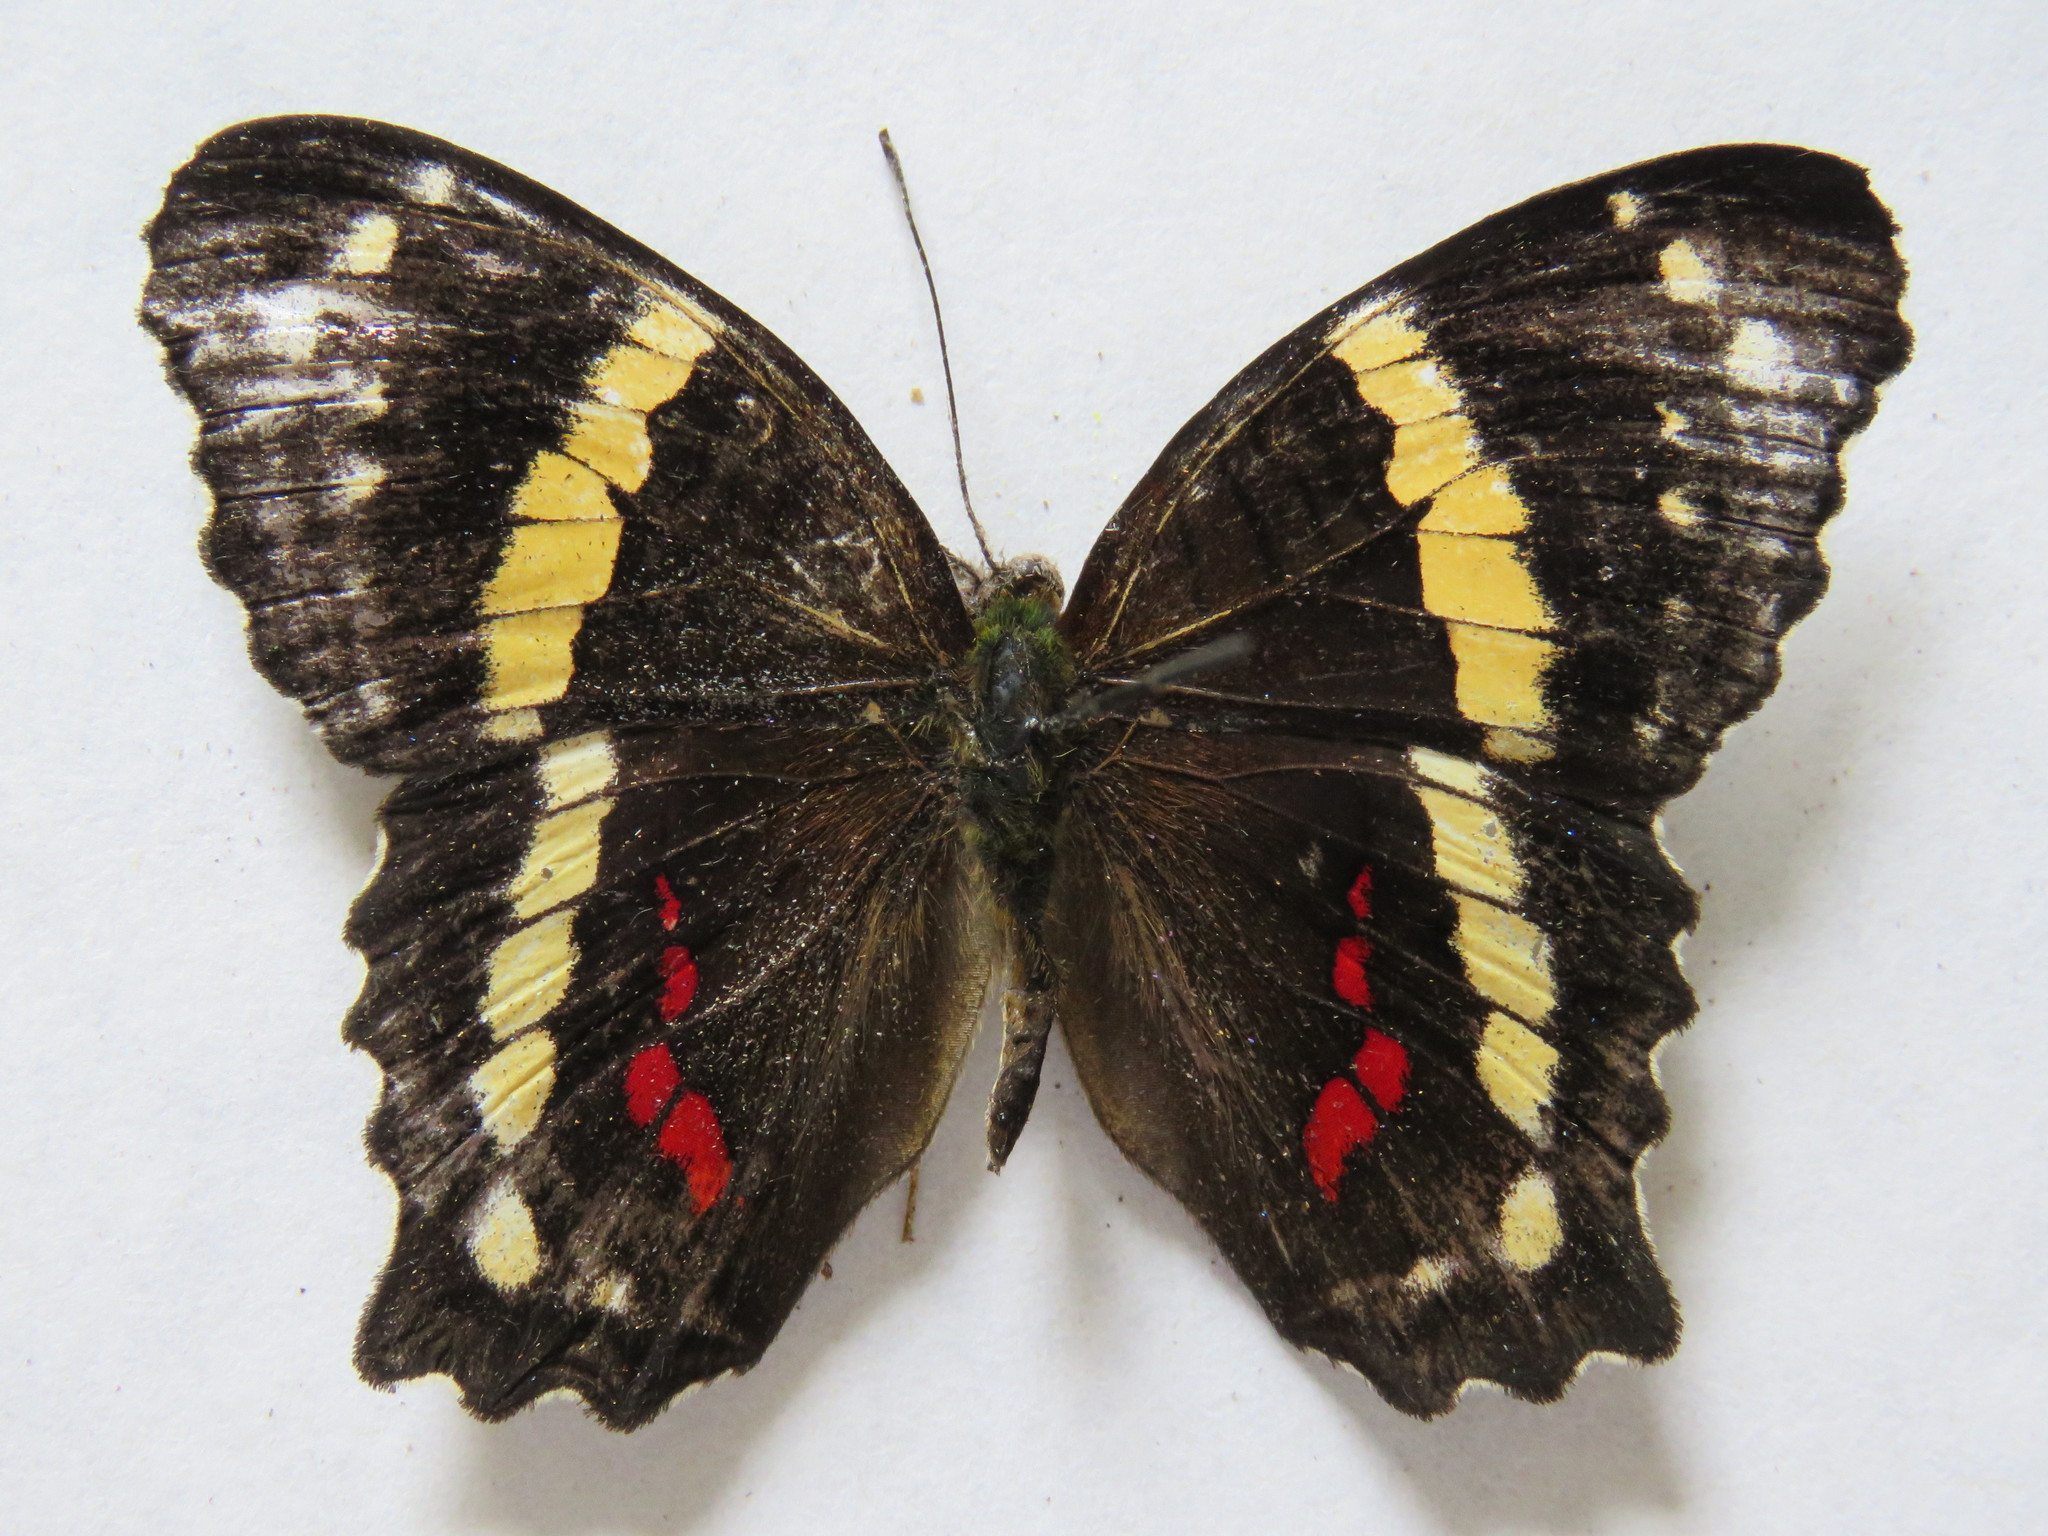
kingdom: Animalia
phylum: Arthropoda
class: Insecta
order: Lepidoptera
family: Nymphalidae
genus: Anartia
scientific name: Anartia fatima
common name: Banded peacock
